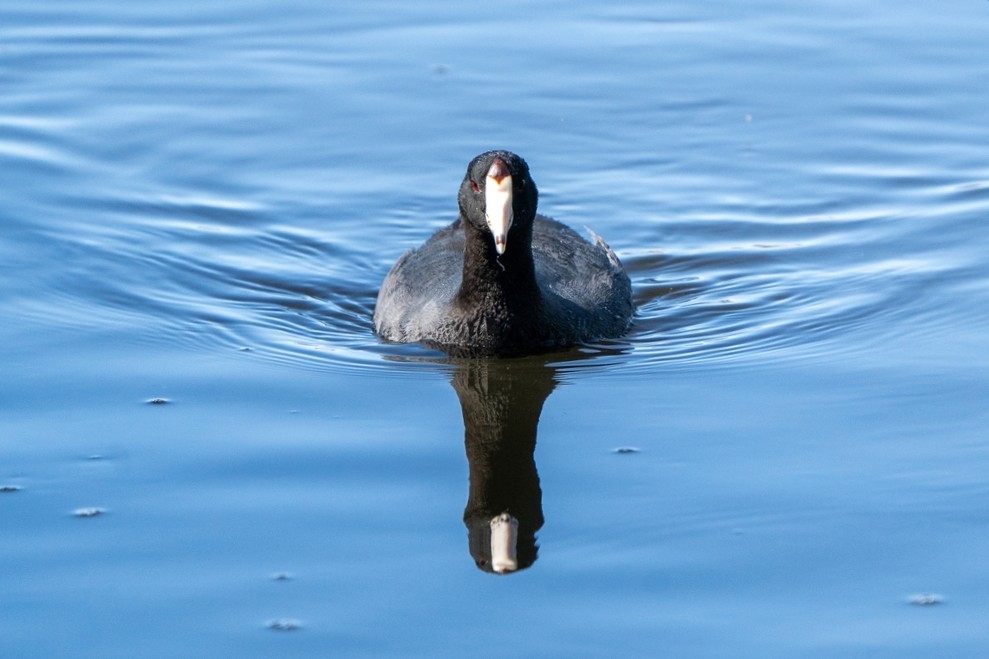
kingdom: Animalia
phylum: Chordata
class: Aves
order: Gruiformes
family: Rallidae
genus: Fulica
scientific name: Fulica americana
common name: American coot
